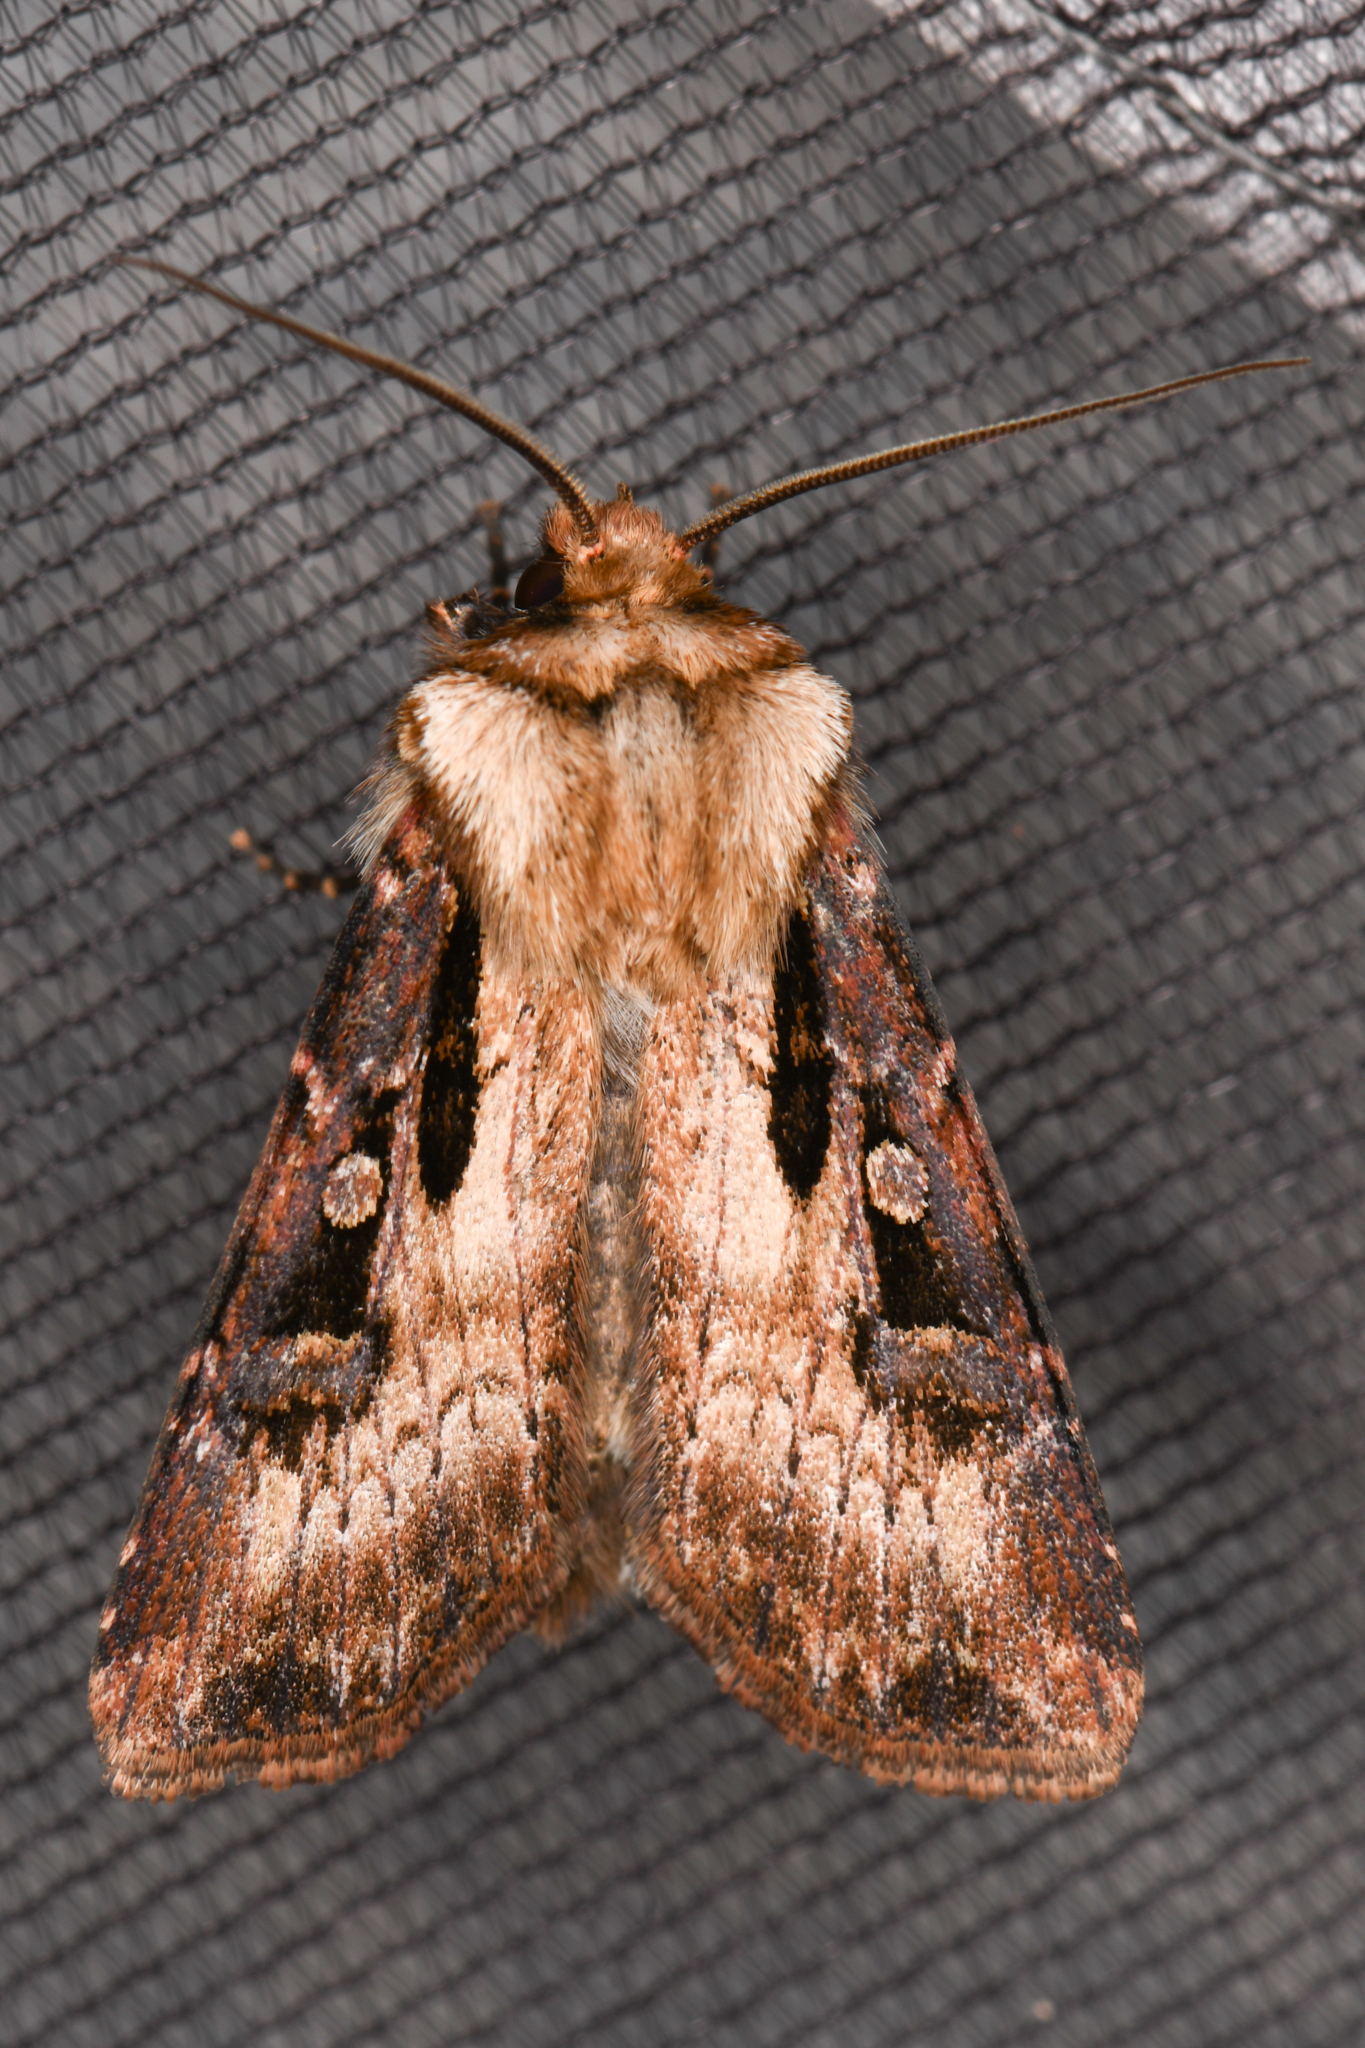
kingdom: Animalia
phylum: Arthropoda
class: Insecta
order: Lepidoptera
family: Noctuidae
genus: Agrotis
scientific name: Agrotis vancouverensis
